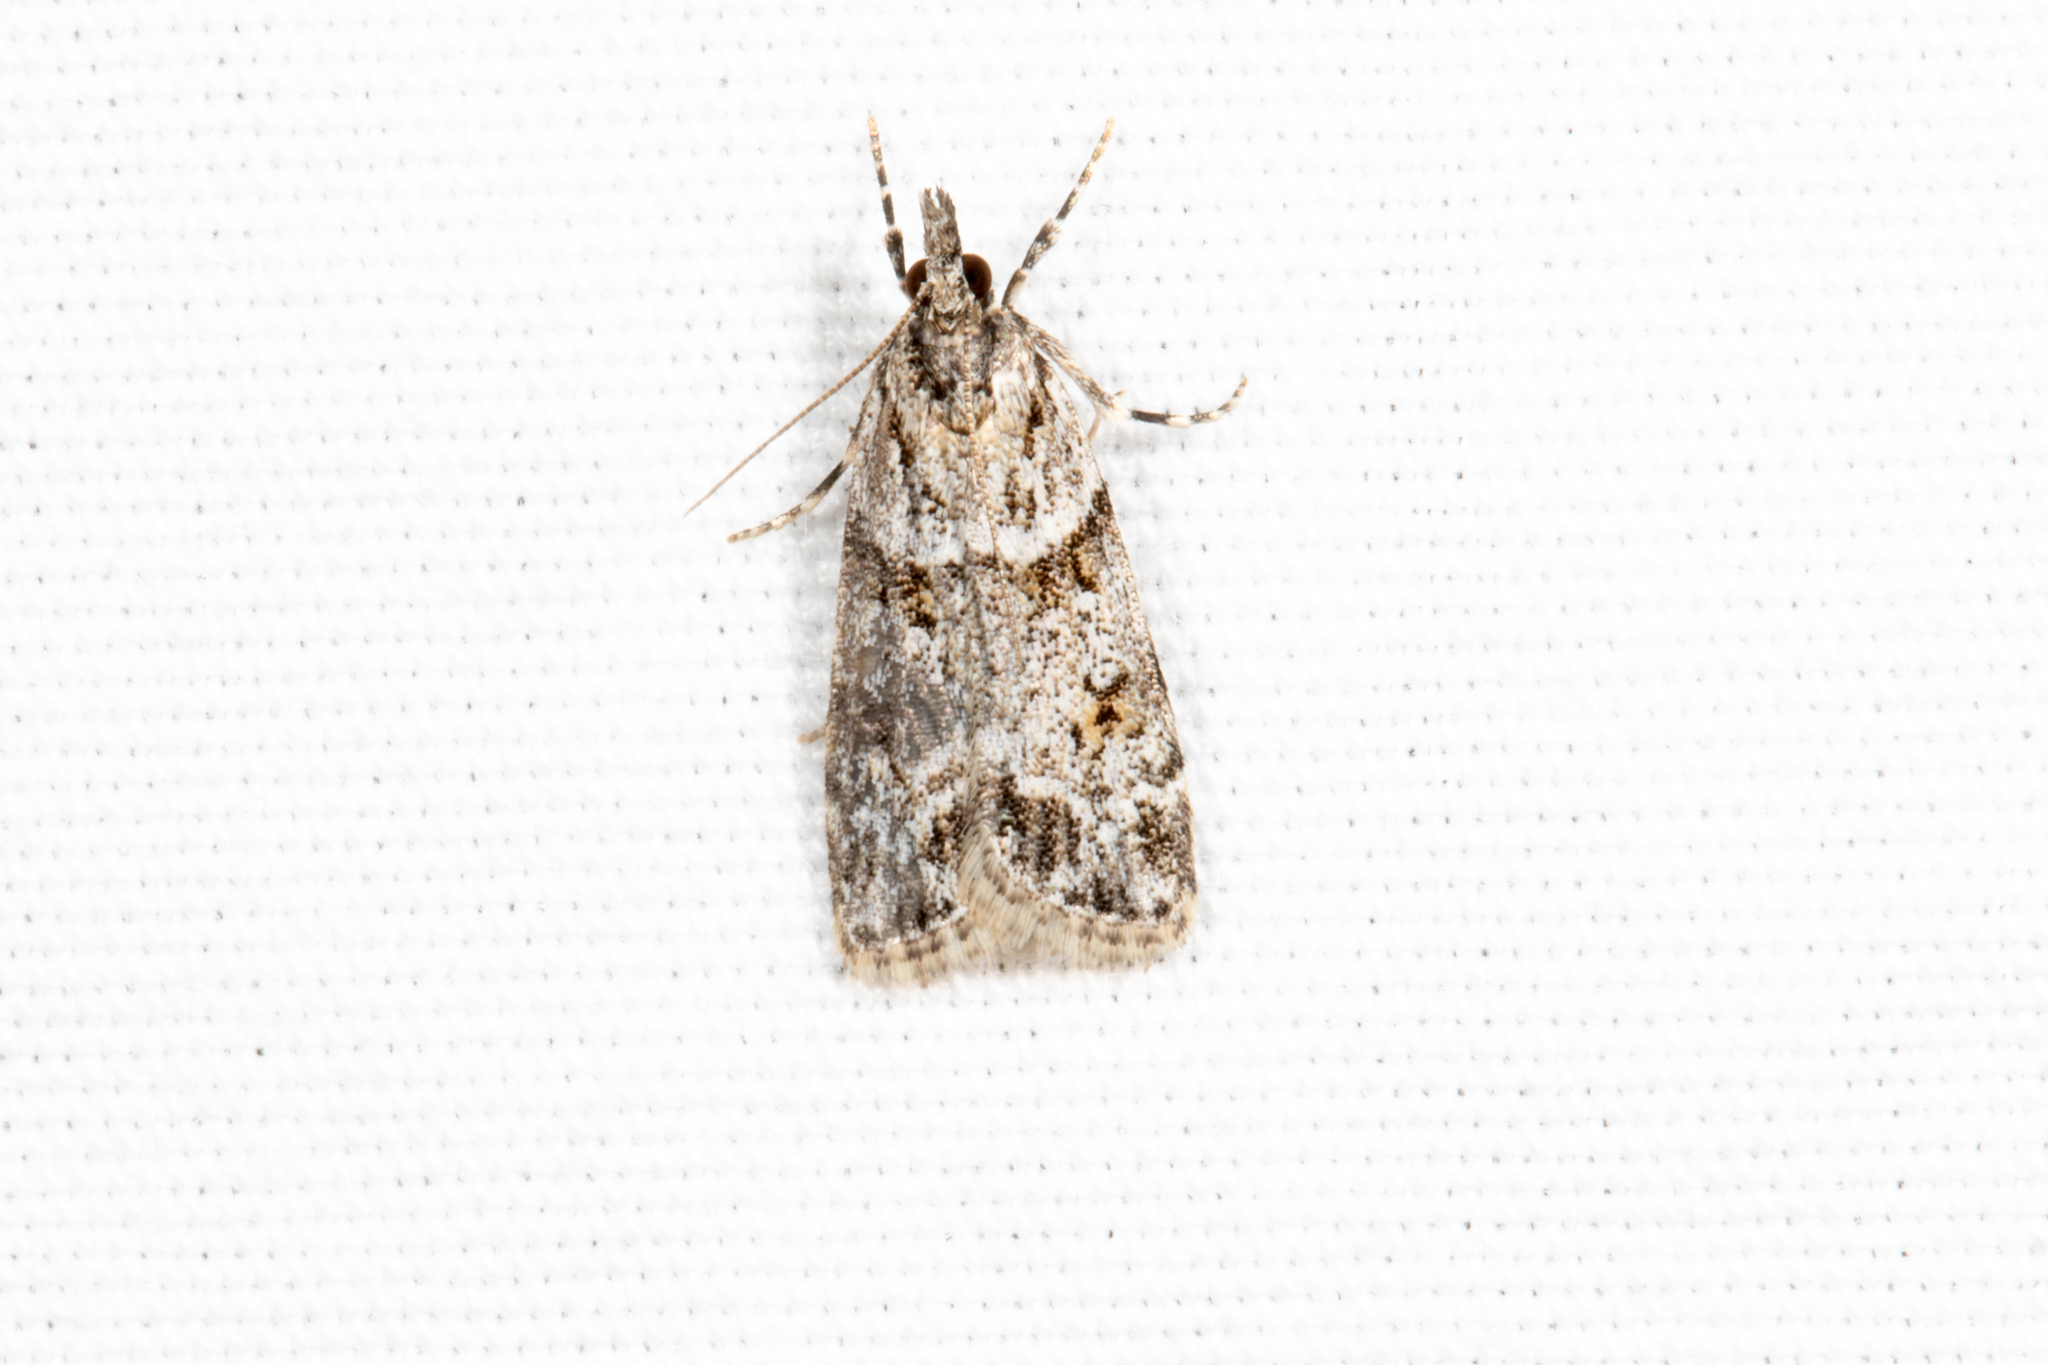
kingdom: Animalia
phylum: Arthropoda
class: Insecta
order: Lepidoptera
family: Crambidae
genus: Scoparia
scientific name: Scoparia biplagialis
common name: Double-striped scoparia moth
